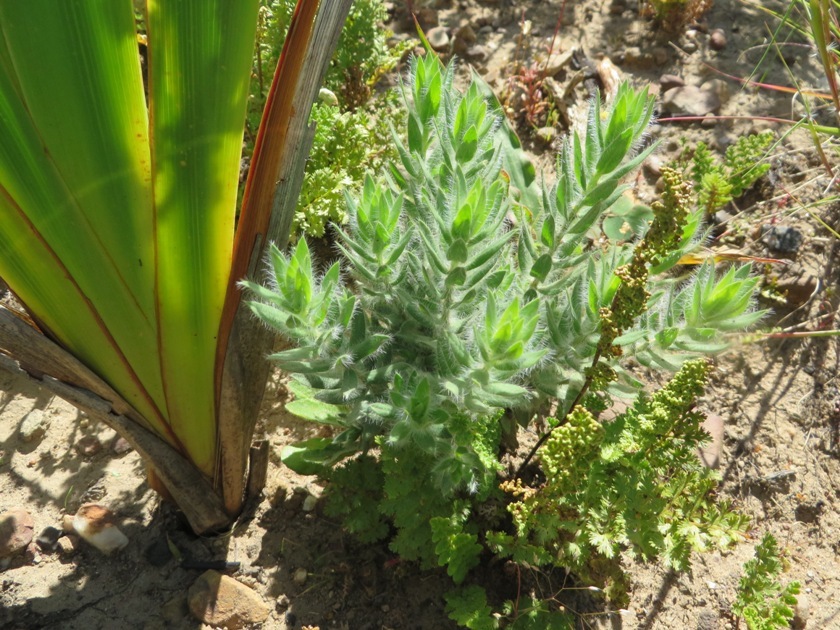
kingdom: Plantae
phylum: Tracheophyta
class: Magnoliopsida
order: Fabales
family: Fabaceae
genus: Xiphotheca
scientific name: Xiphotheca lanceolata
